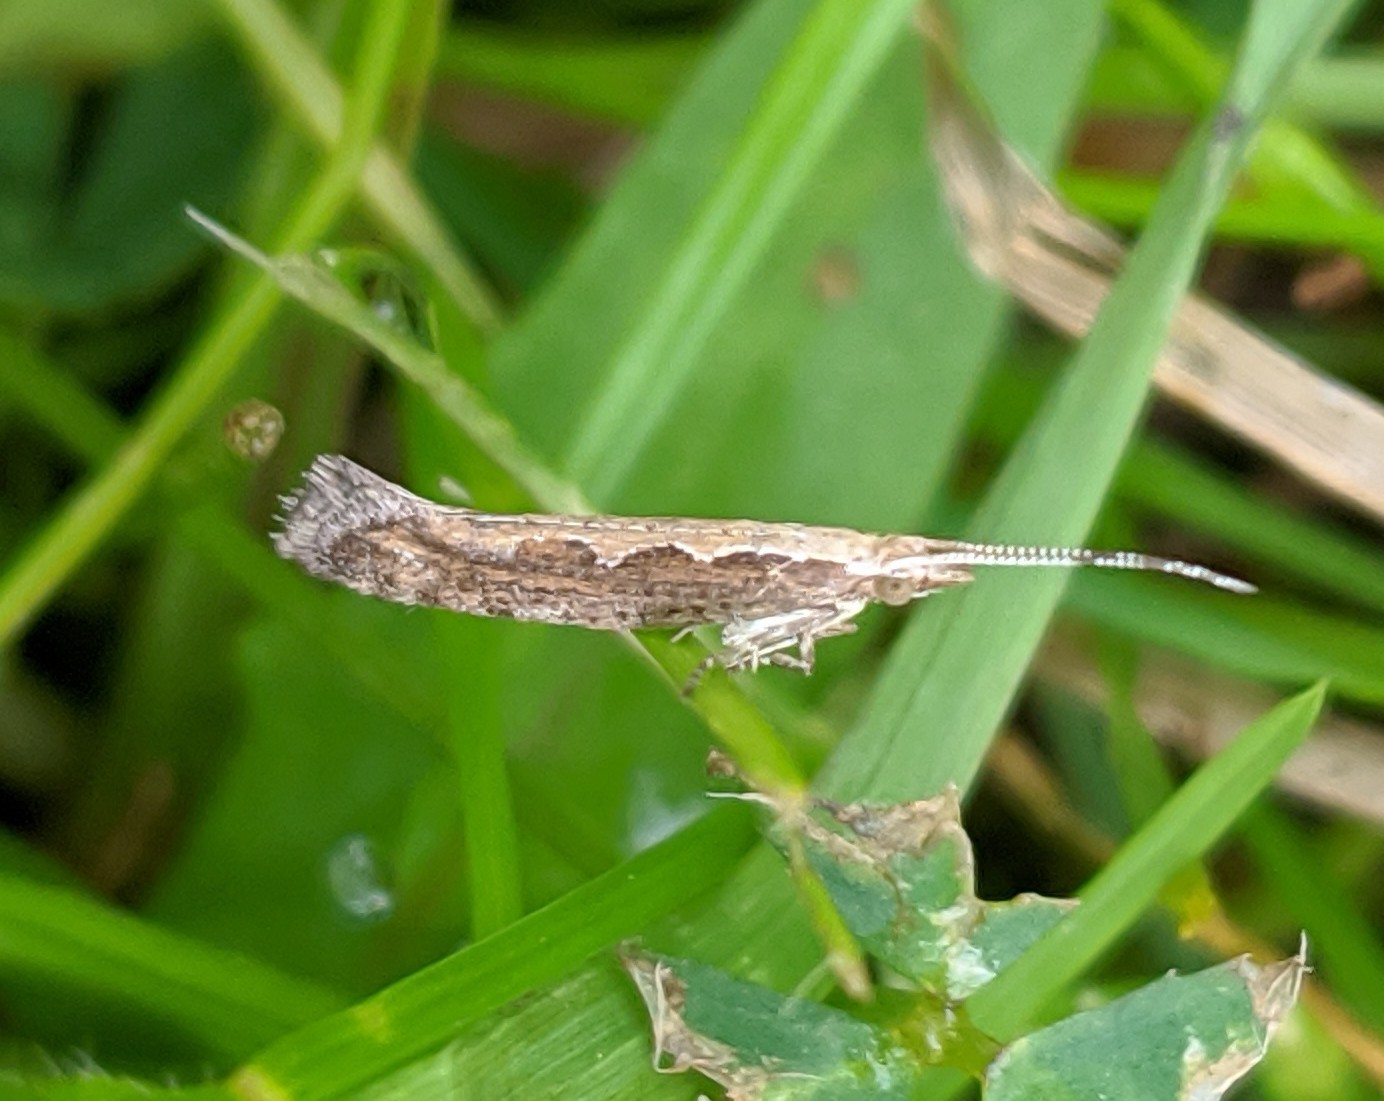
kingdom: Animalia
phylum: Arthropoda
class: Insecta
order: Lepidoptera
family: Plutellidae
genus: Plutella
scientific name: Plutella xylostella
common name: Diamond-back moth
